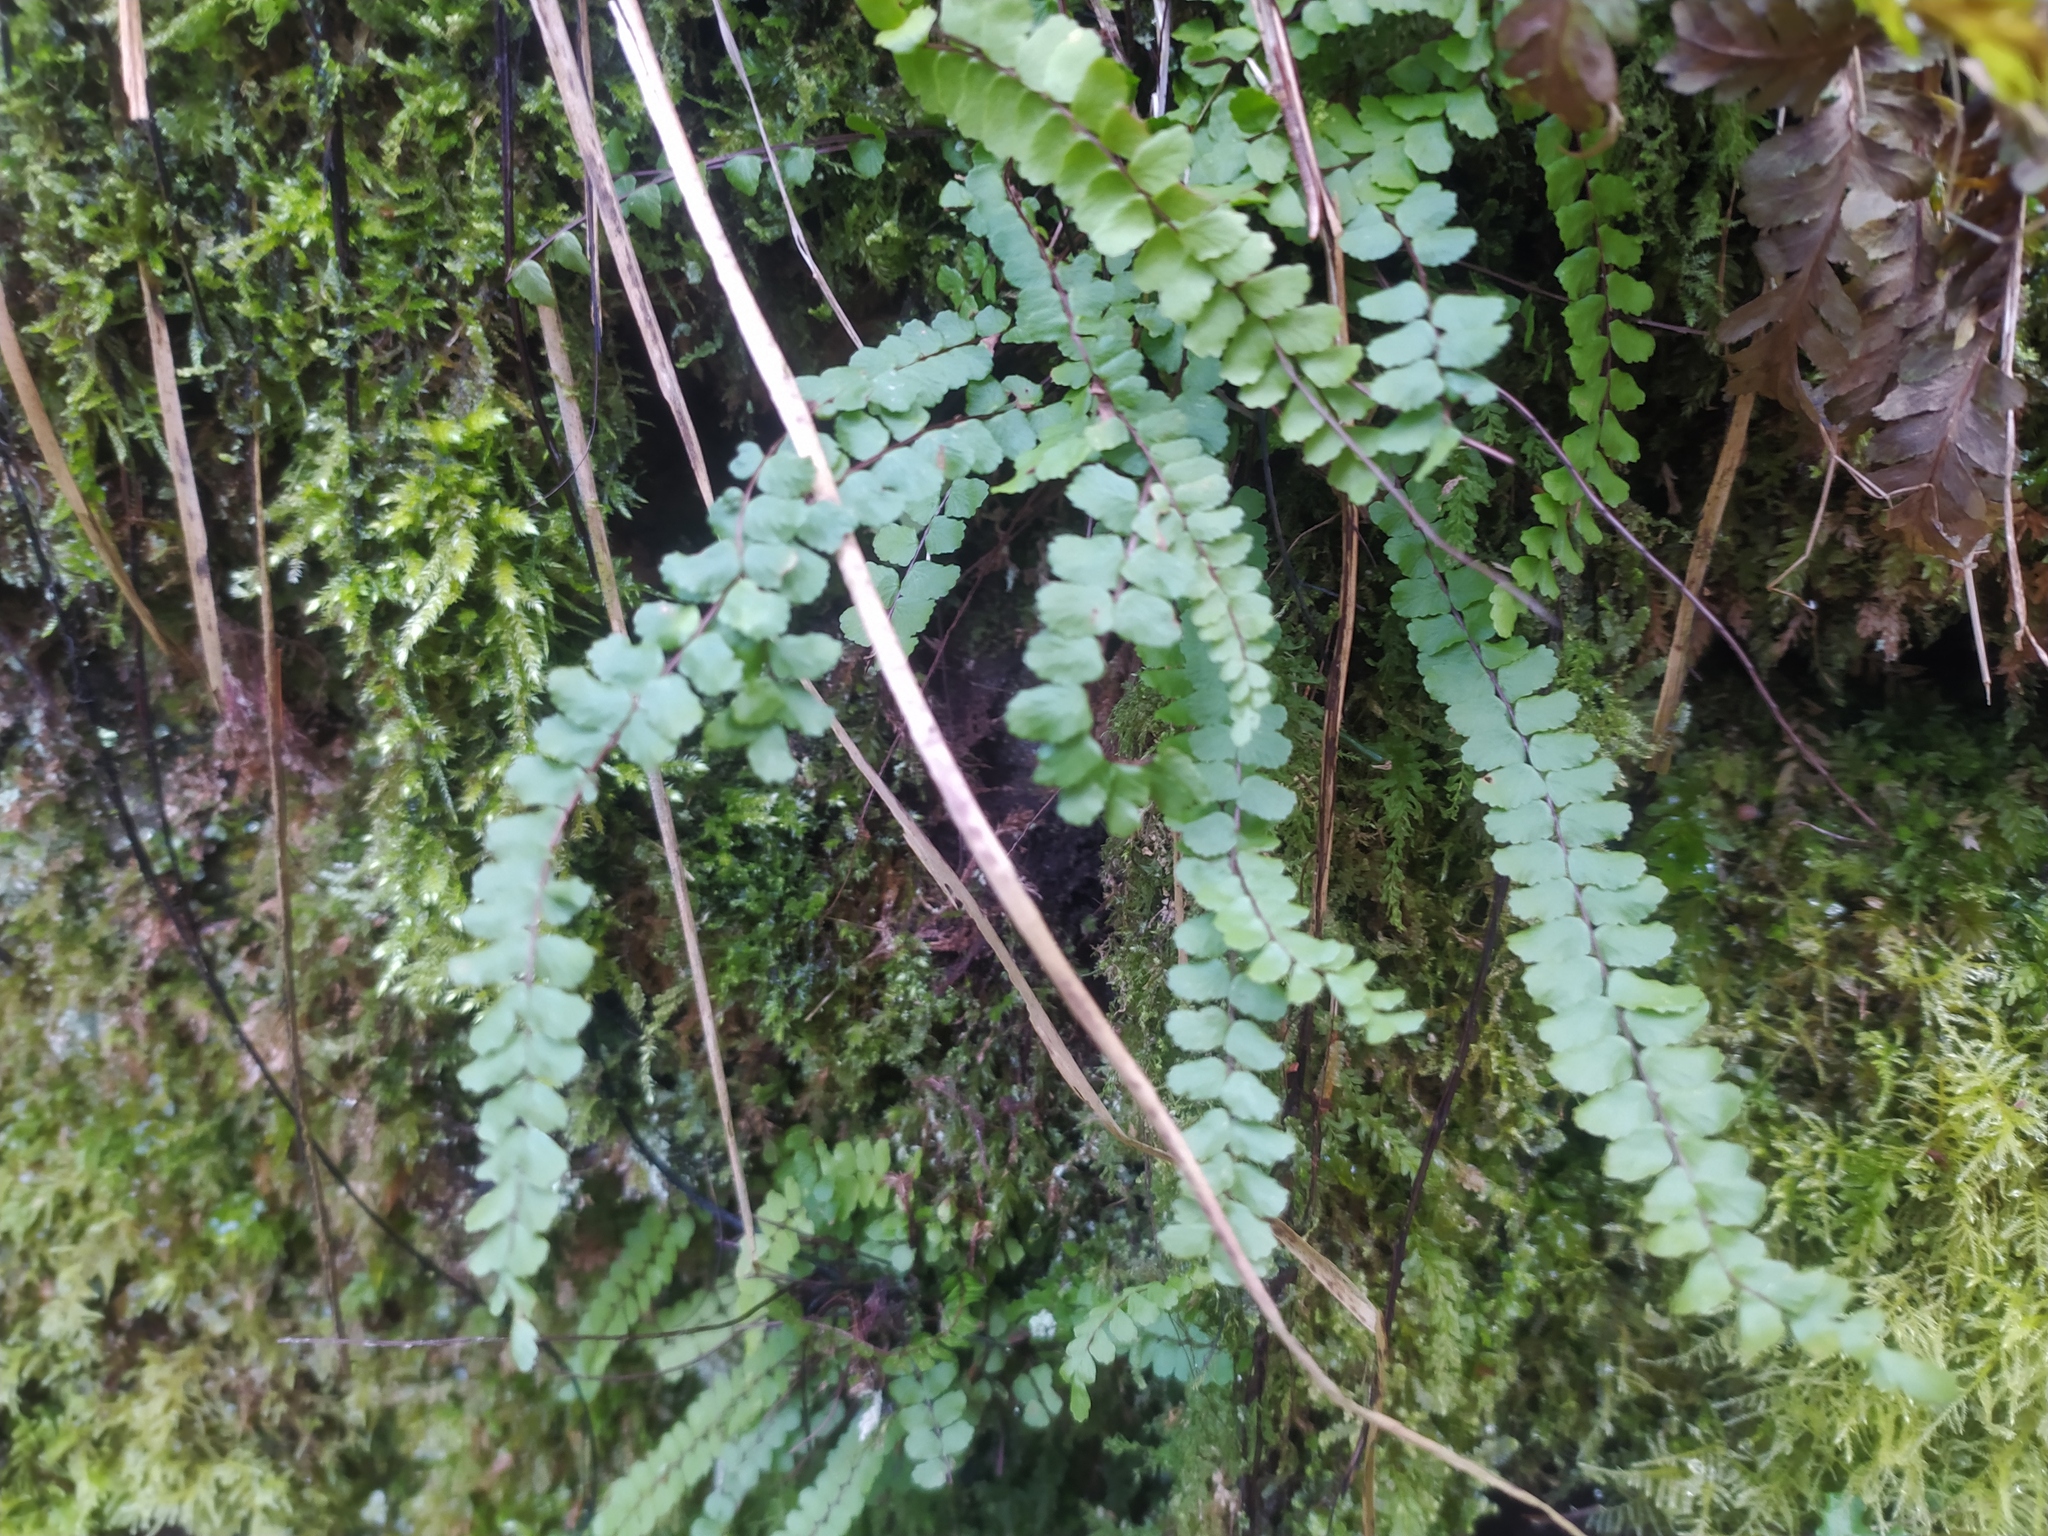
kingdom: Plantae
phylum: Tracheophyta
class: Polypodiopsida
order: Polypodiales
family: Aspleniaceae
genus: Asplenium
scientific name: Asplenium trichomanes
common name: Maidenhair spleenwort
